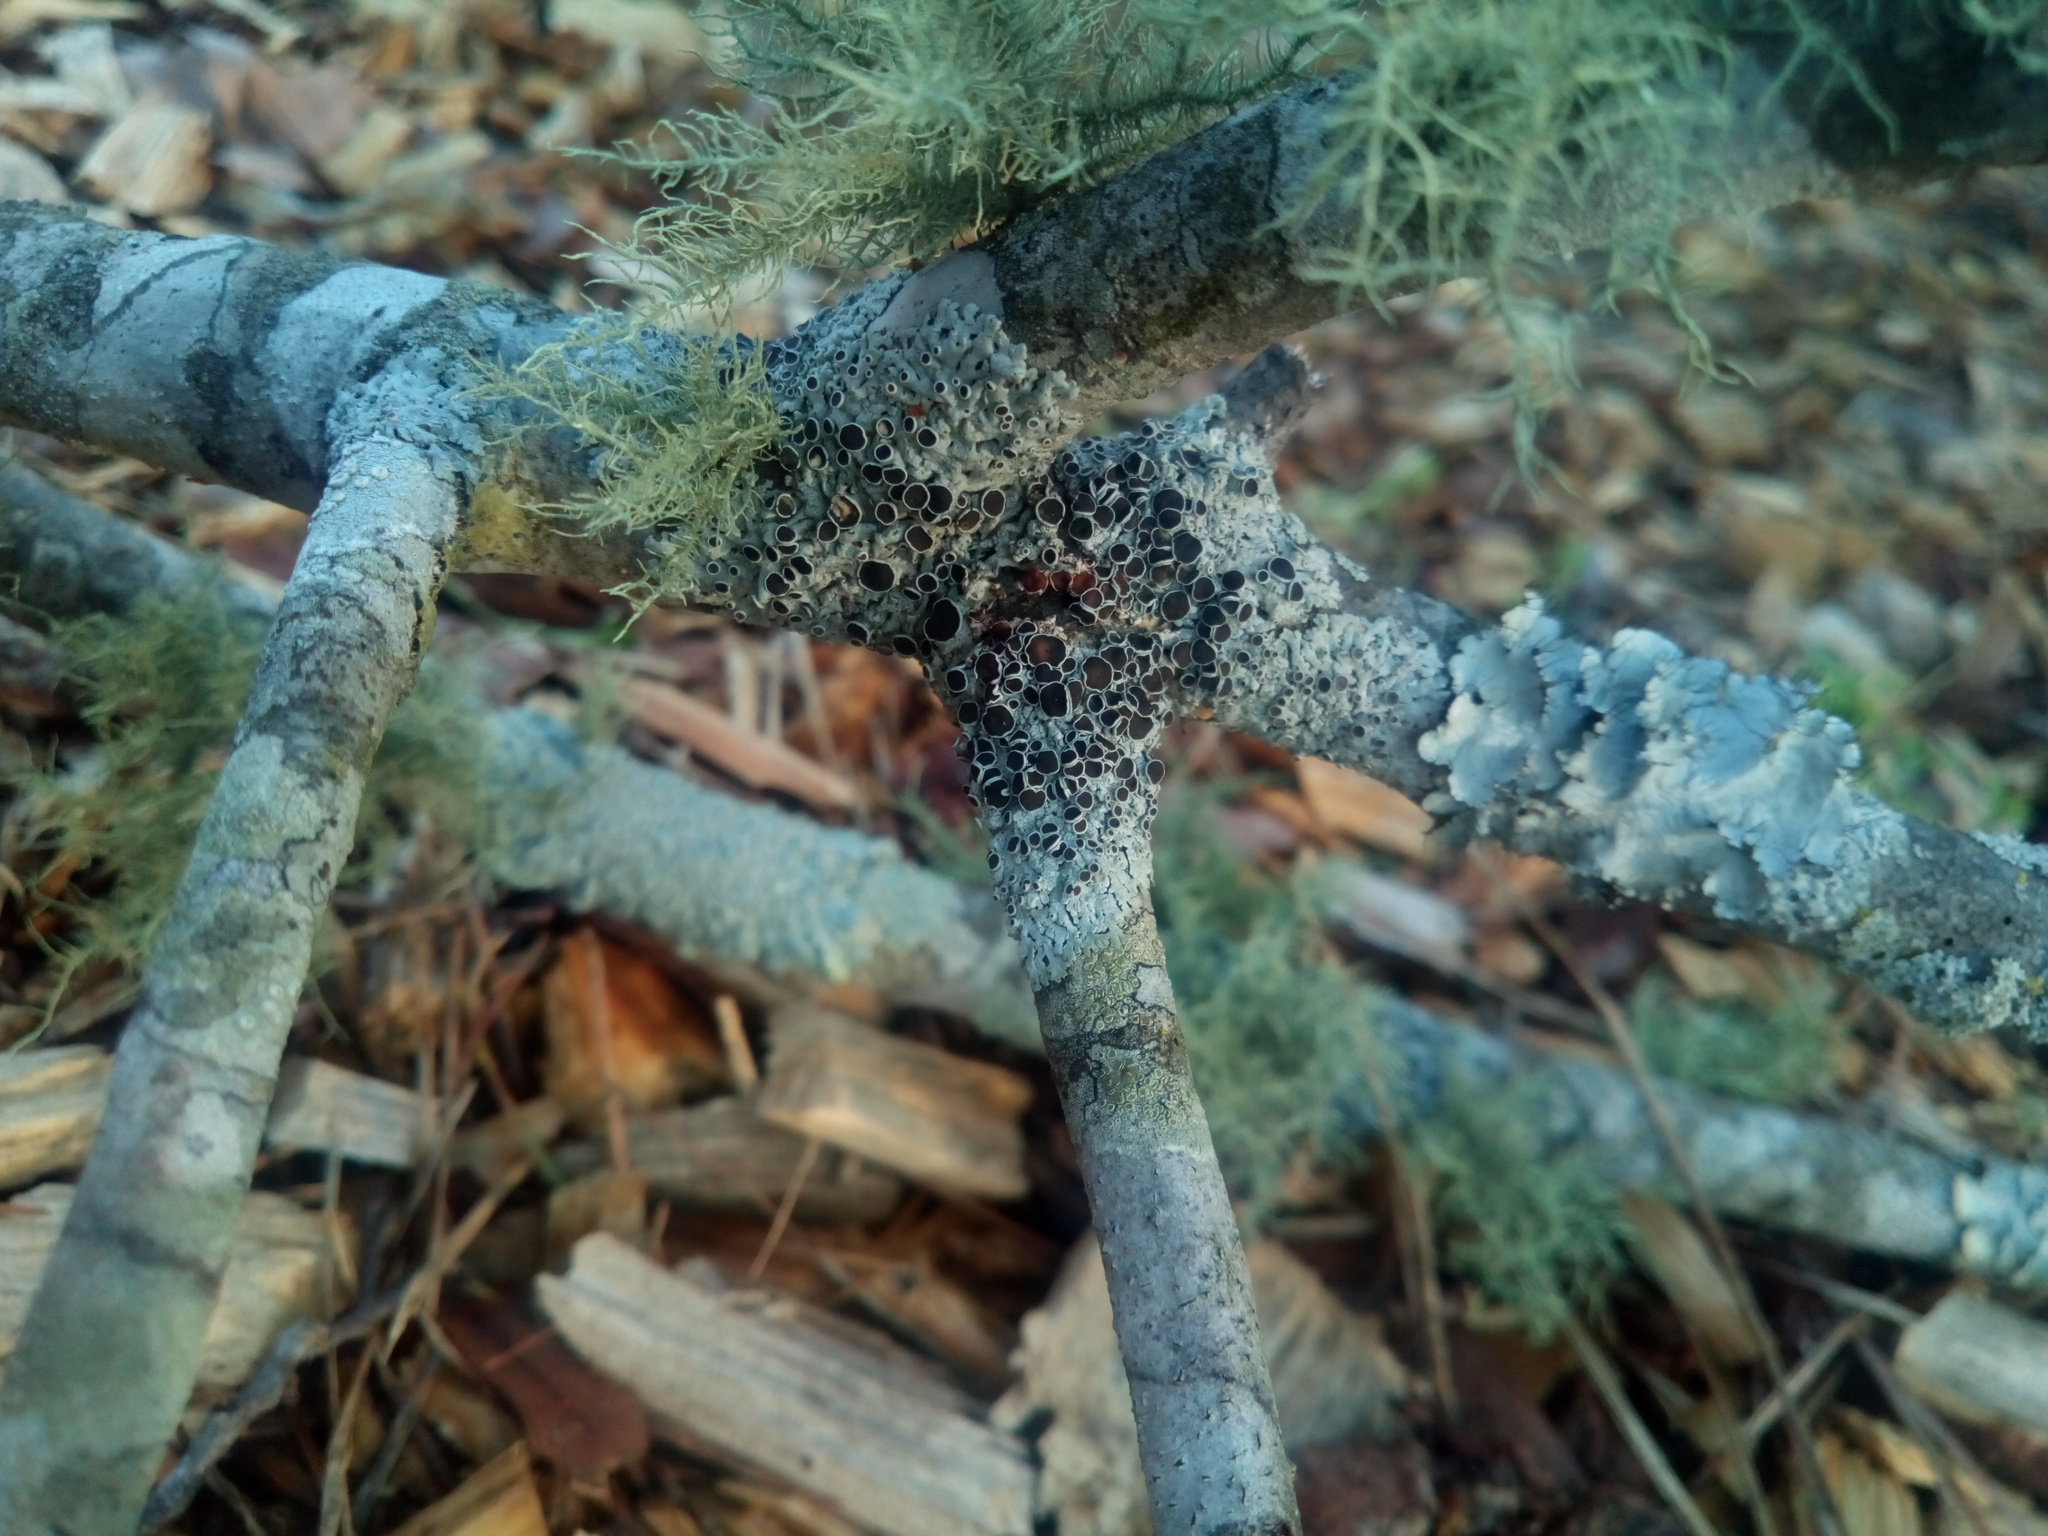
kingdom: Fungi
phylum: Ascomycota
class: Lecanoromycetes
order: Caliciales
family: Physciaceae
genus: Physcia
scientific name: Physcia stellaris
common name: Star rosette lichen
